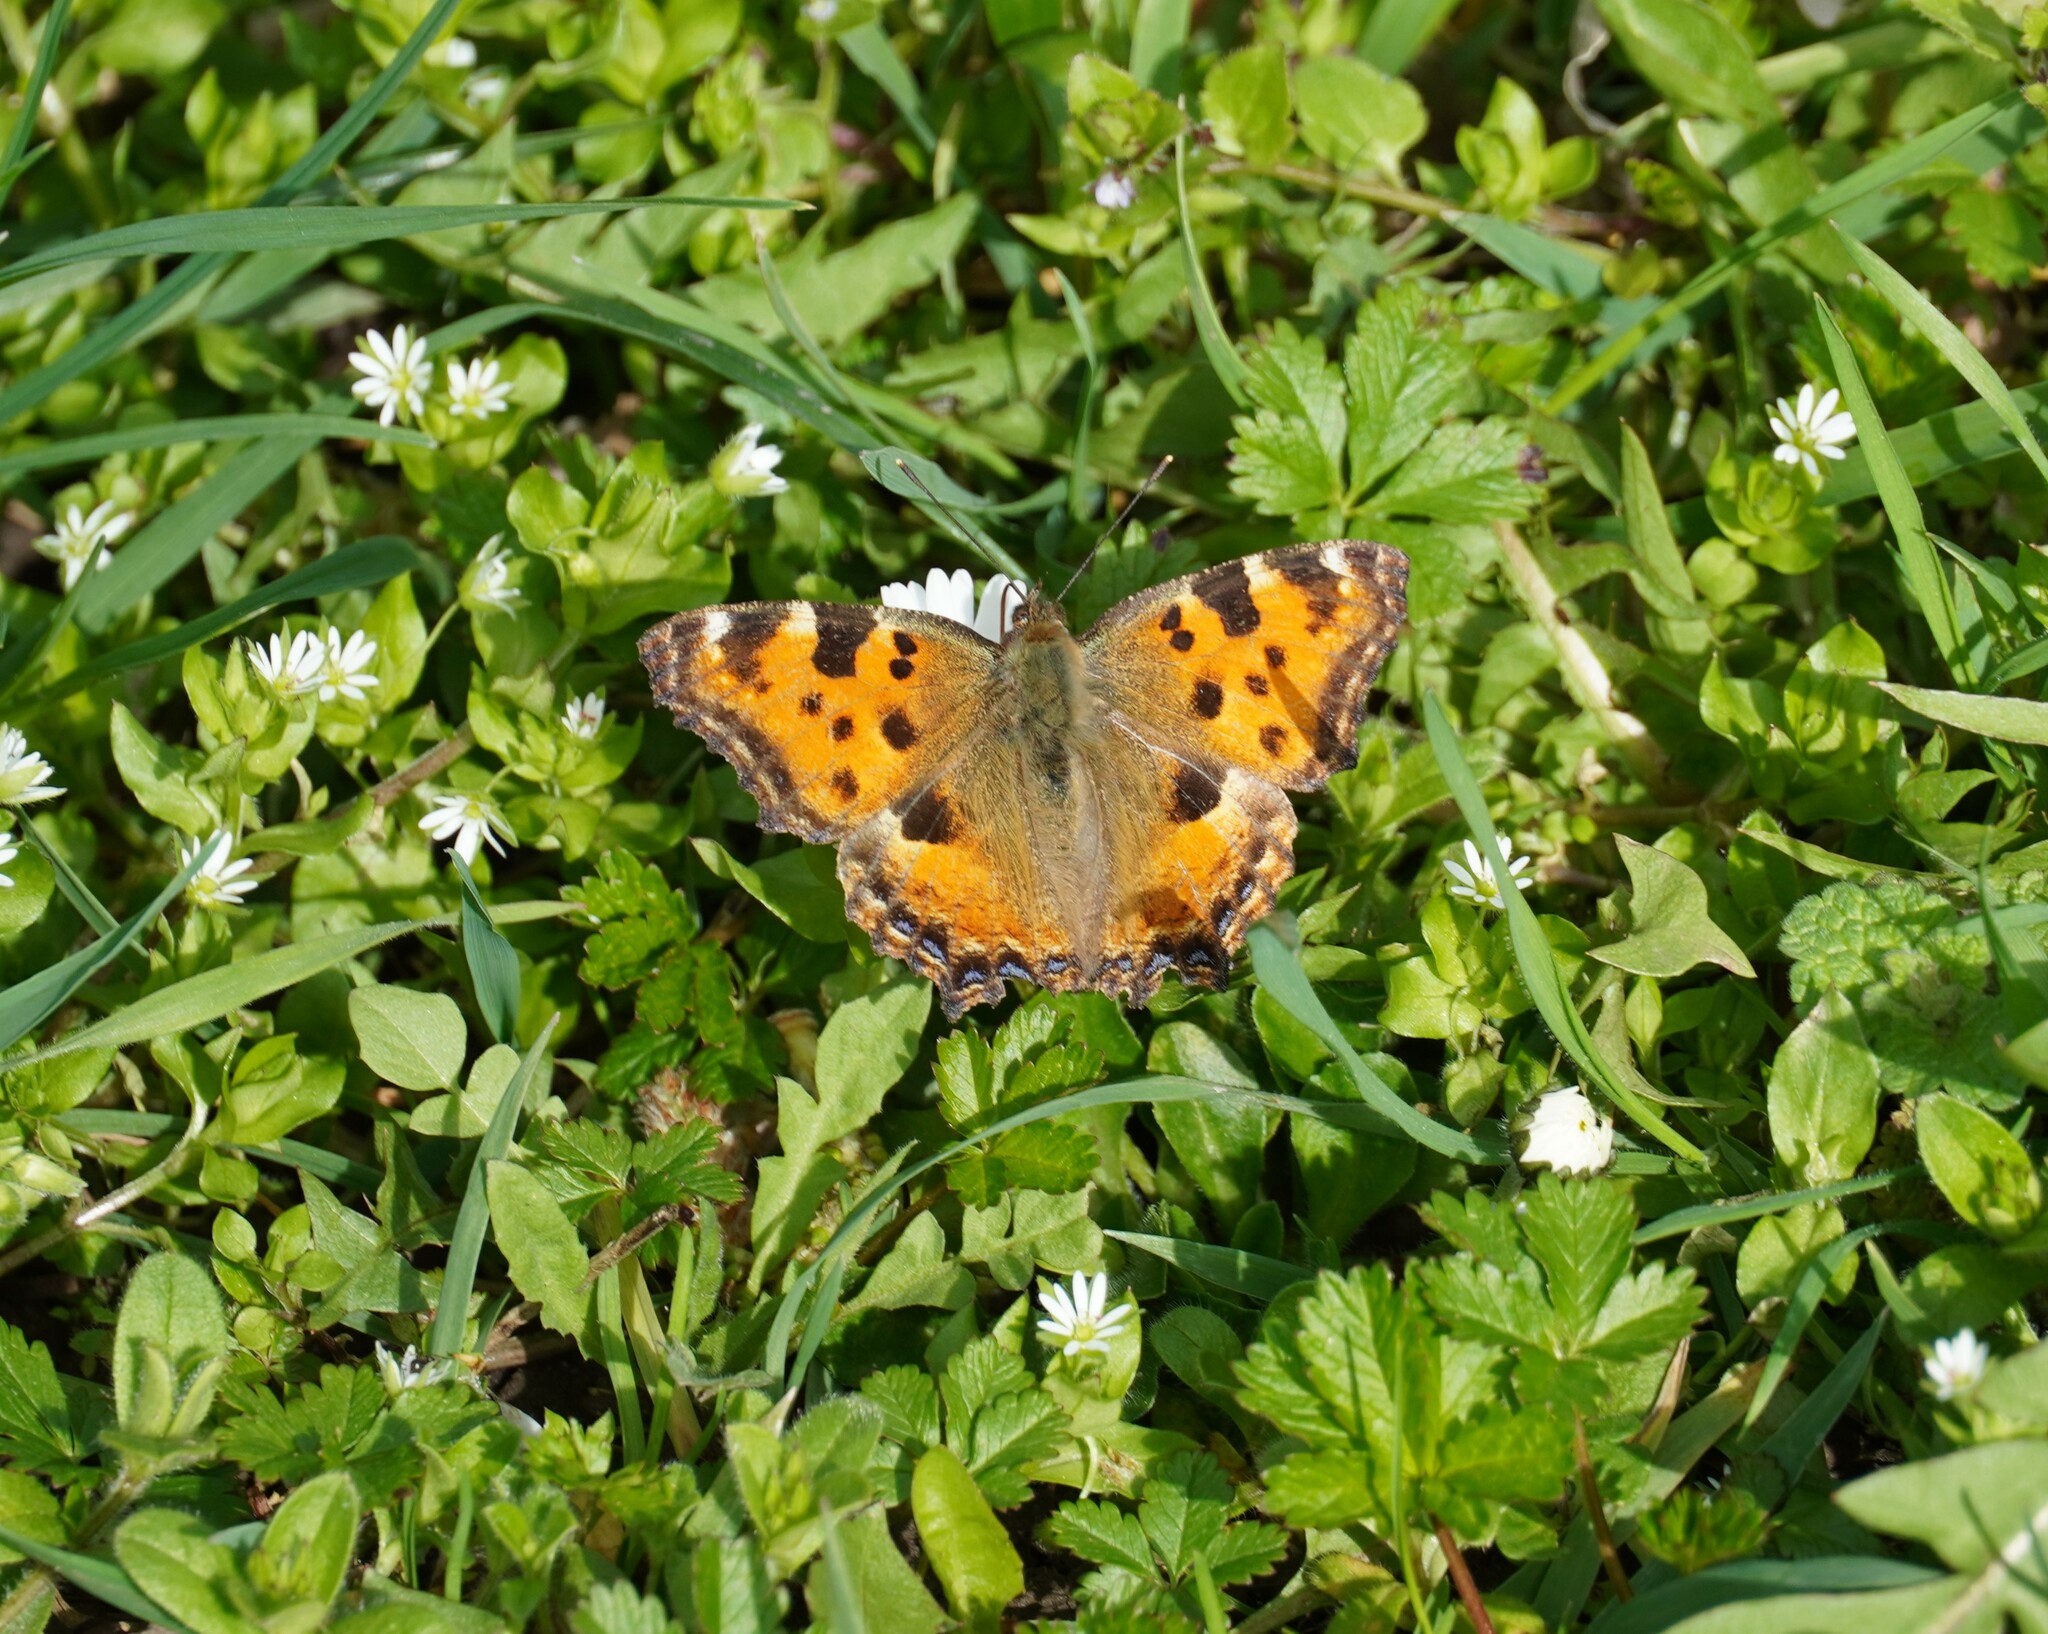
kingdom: Animalia
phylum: Arthropoda
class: Insecta
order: Lepidoptera
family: Nymphalidae
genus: Nymphalis
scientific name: Nymphalis polychloros
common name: Large tortoiseshell
